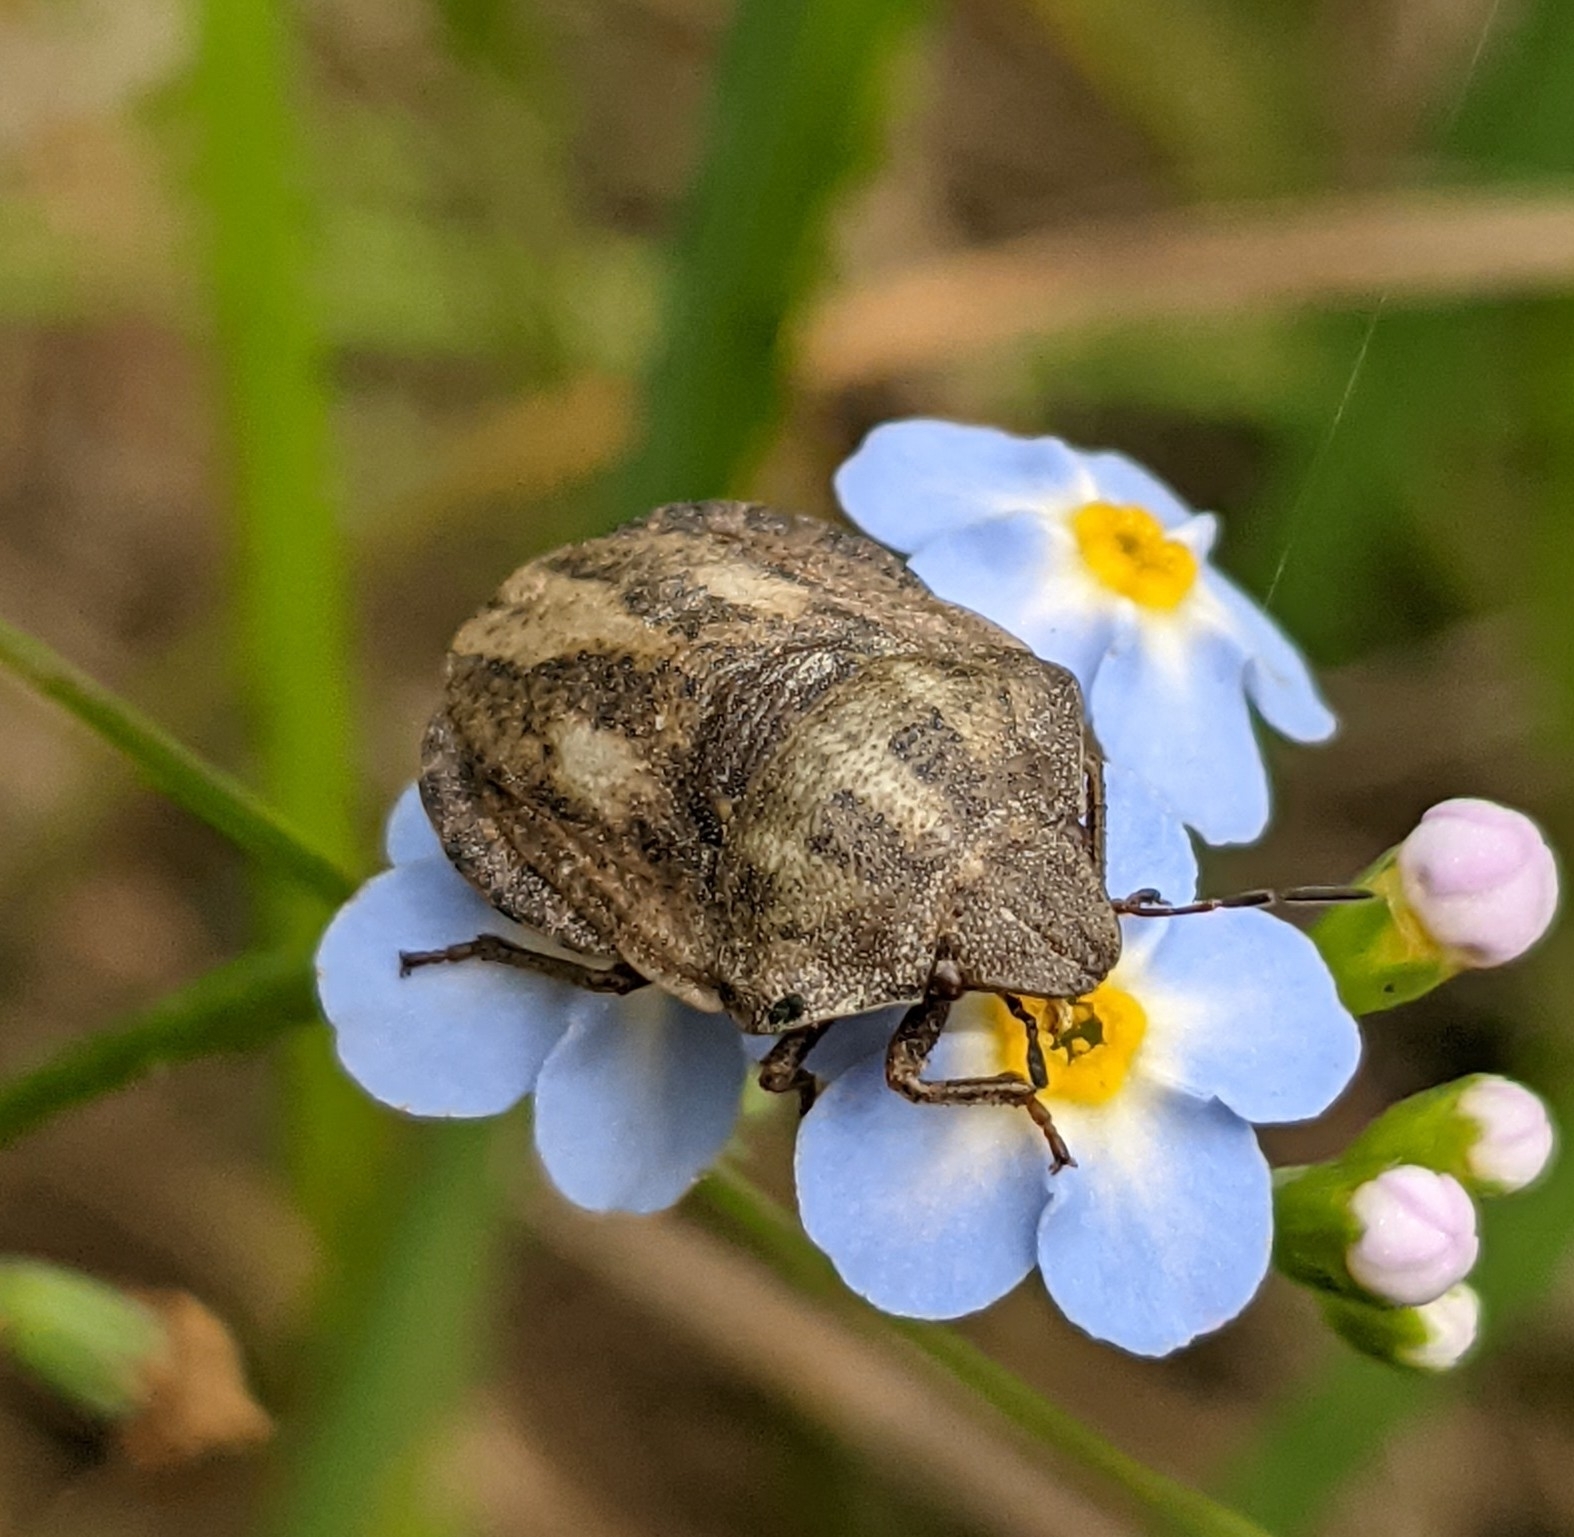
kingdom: Animalia
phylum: Arthropoda
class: Insecta
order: Hemiptera
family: Scutelleridae
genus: Eurygaster
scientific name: Eurygaster testudinaria
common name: Tortoise bug
